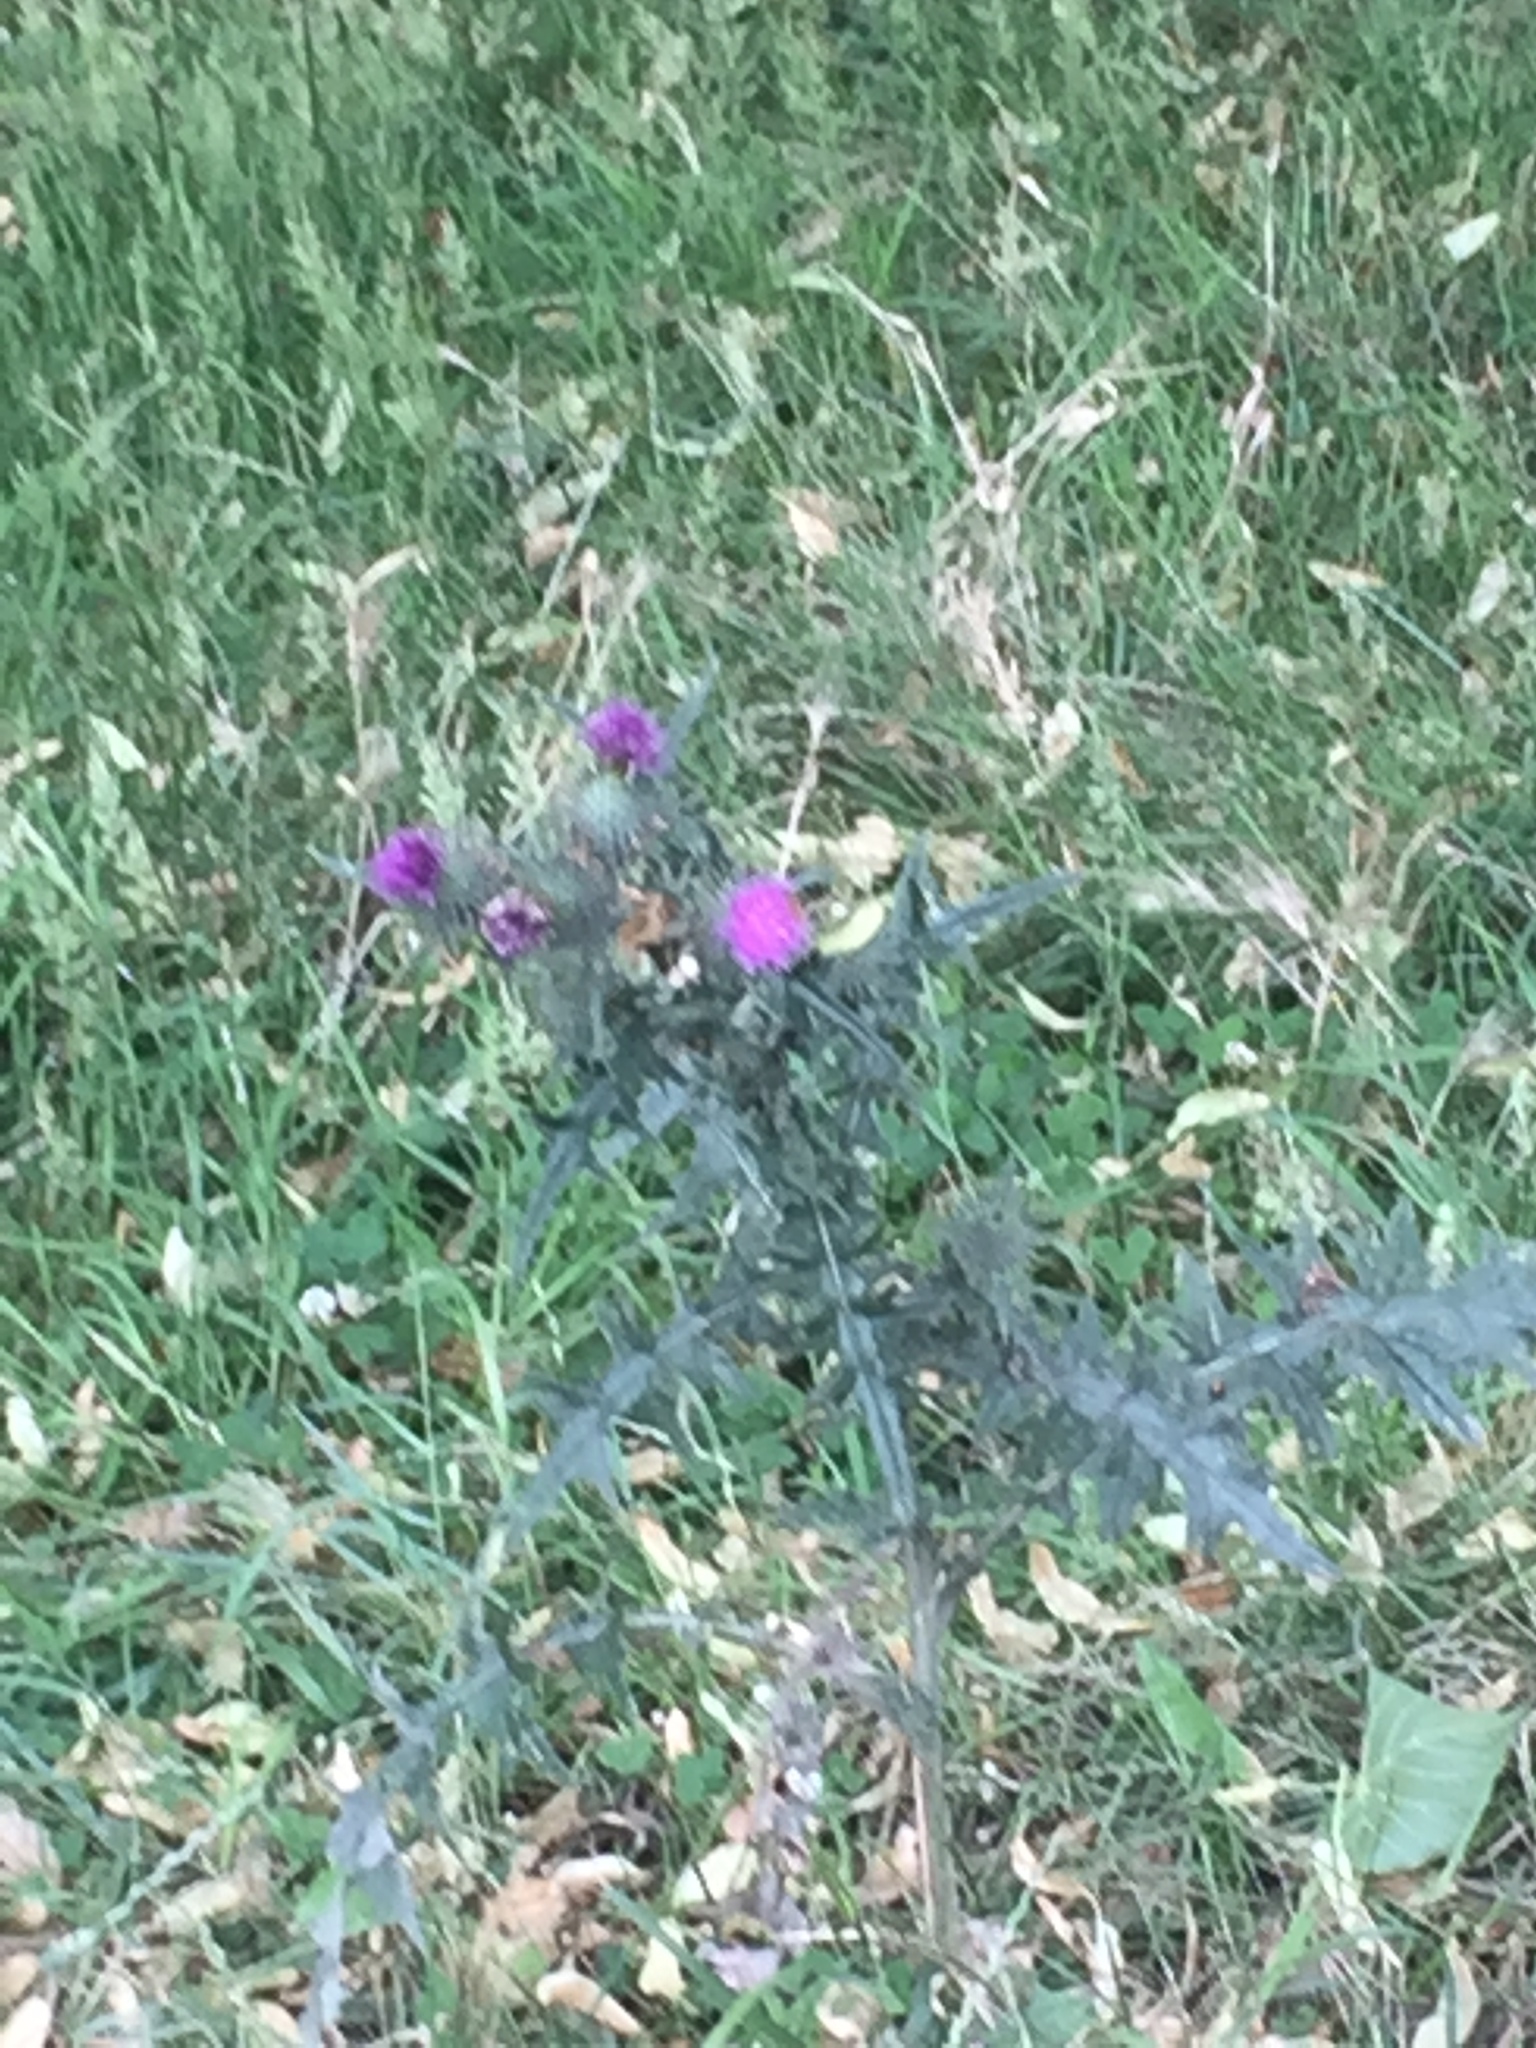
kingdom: Plantae
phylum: Tracheophyta
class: Magnoliopsida
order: Asterales
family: Asteraceae
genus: Cirsium
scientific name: Cirsium vulgare
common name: Bull thistle
